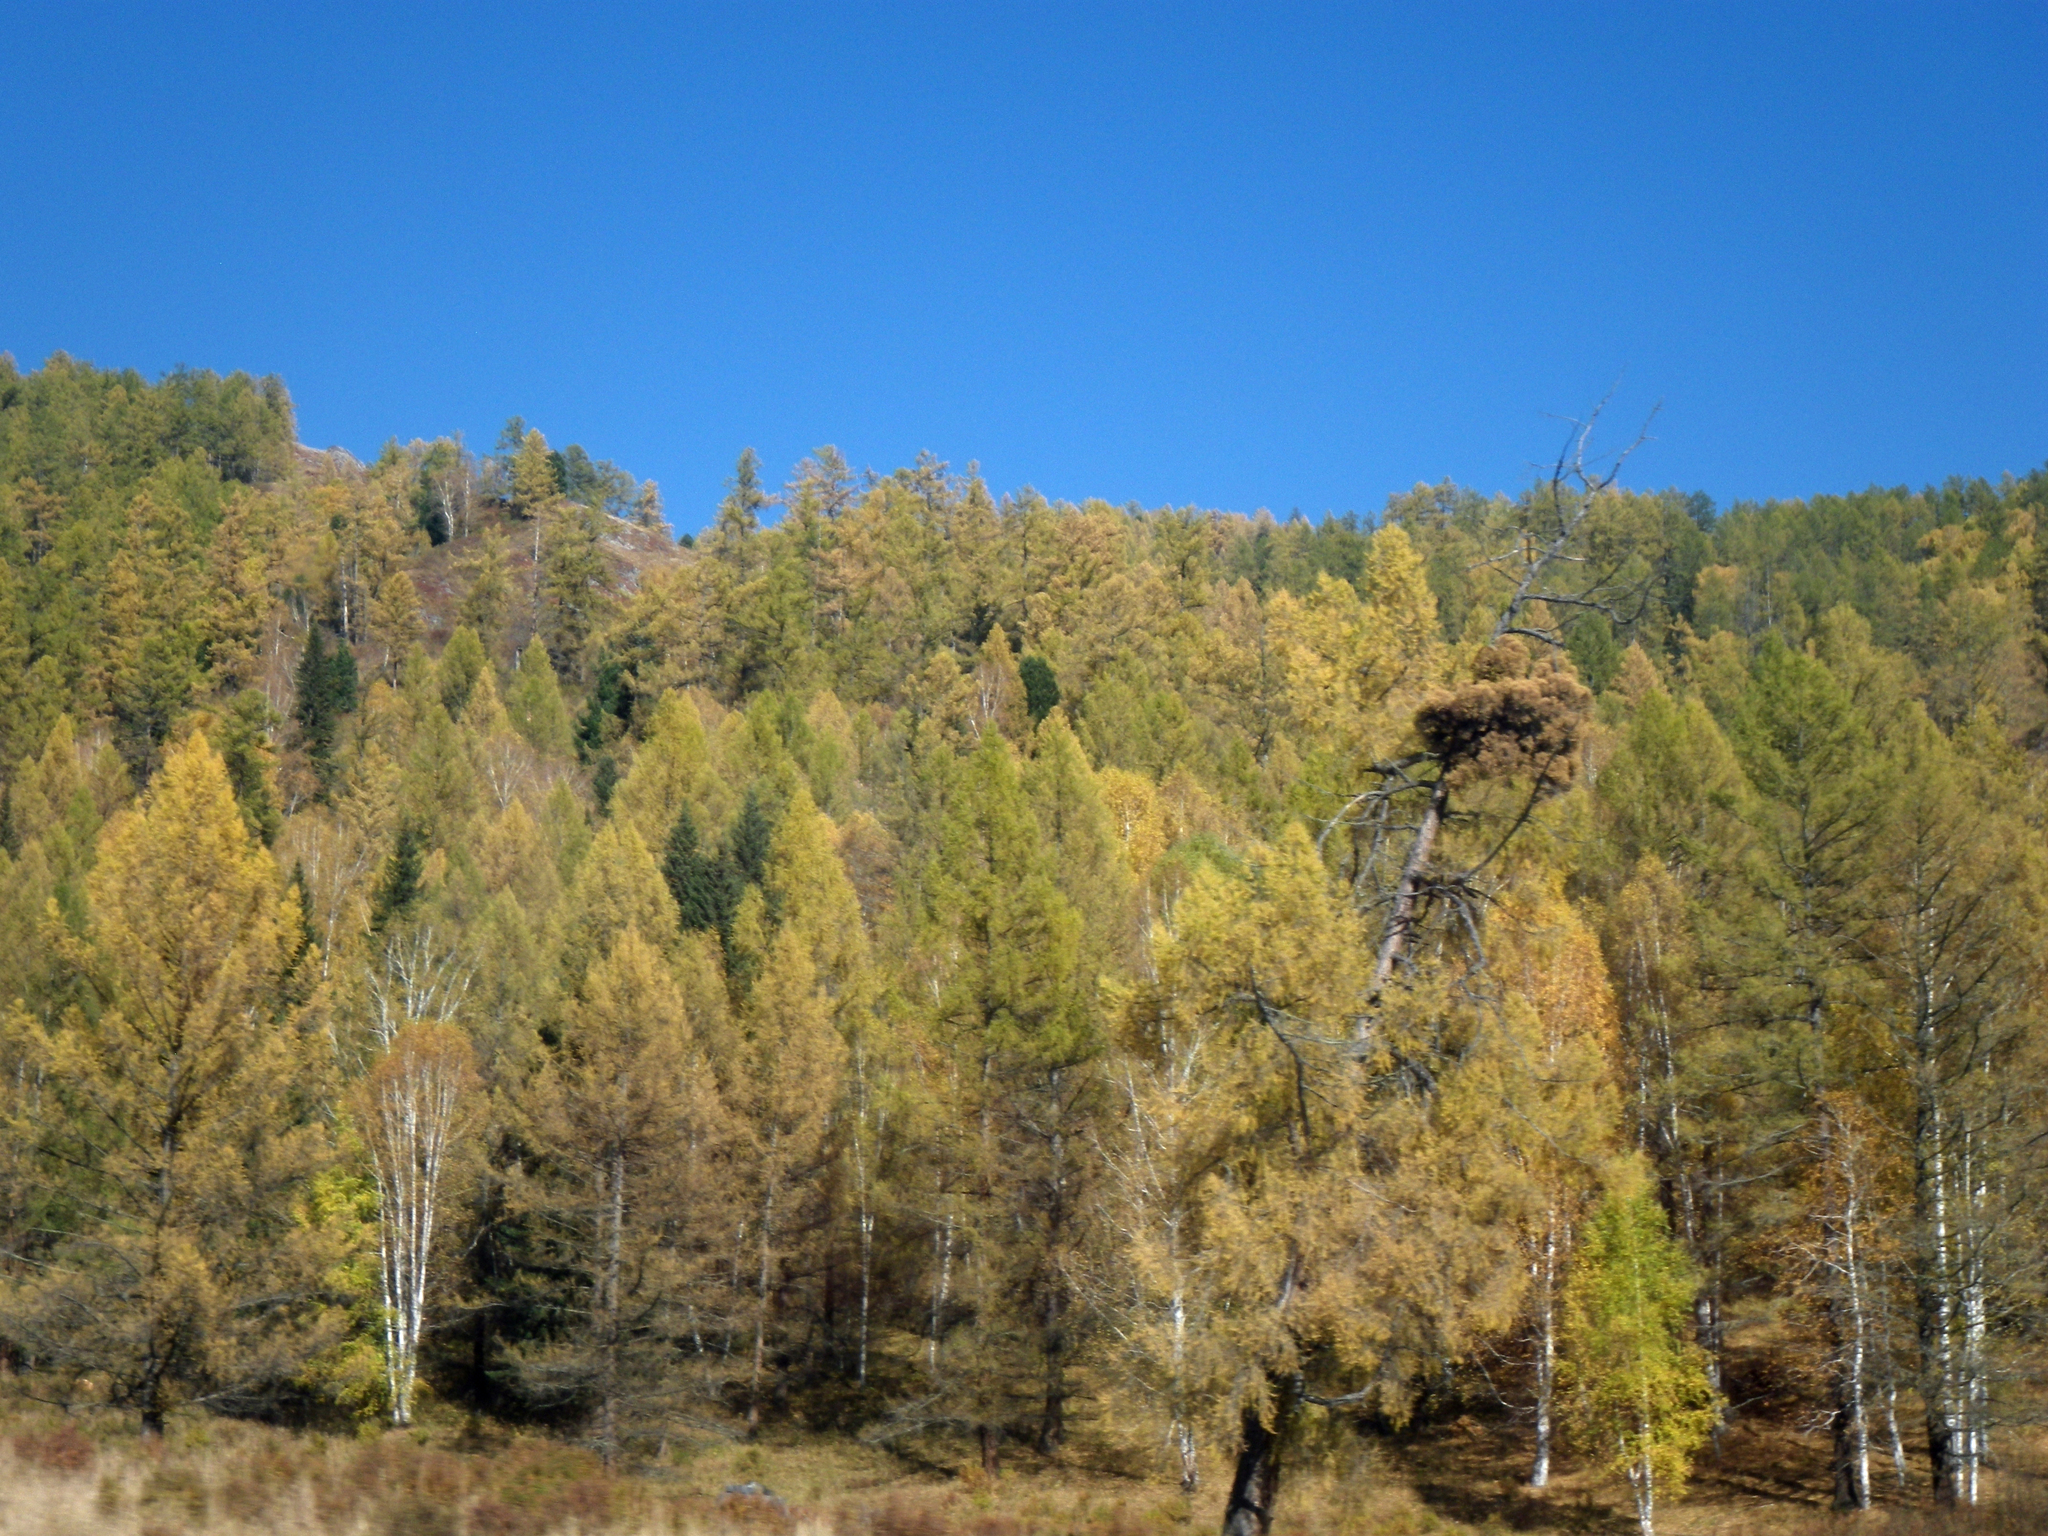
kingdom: Plantae
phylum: Tracheophyta
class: Pinopsida
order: Pinales
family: Pinaceae
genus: Larix
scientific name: Larix sibirica
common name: Siberian larch
